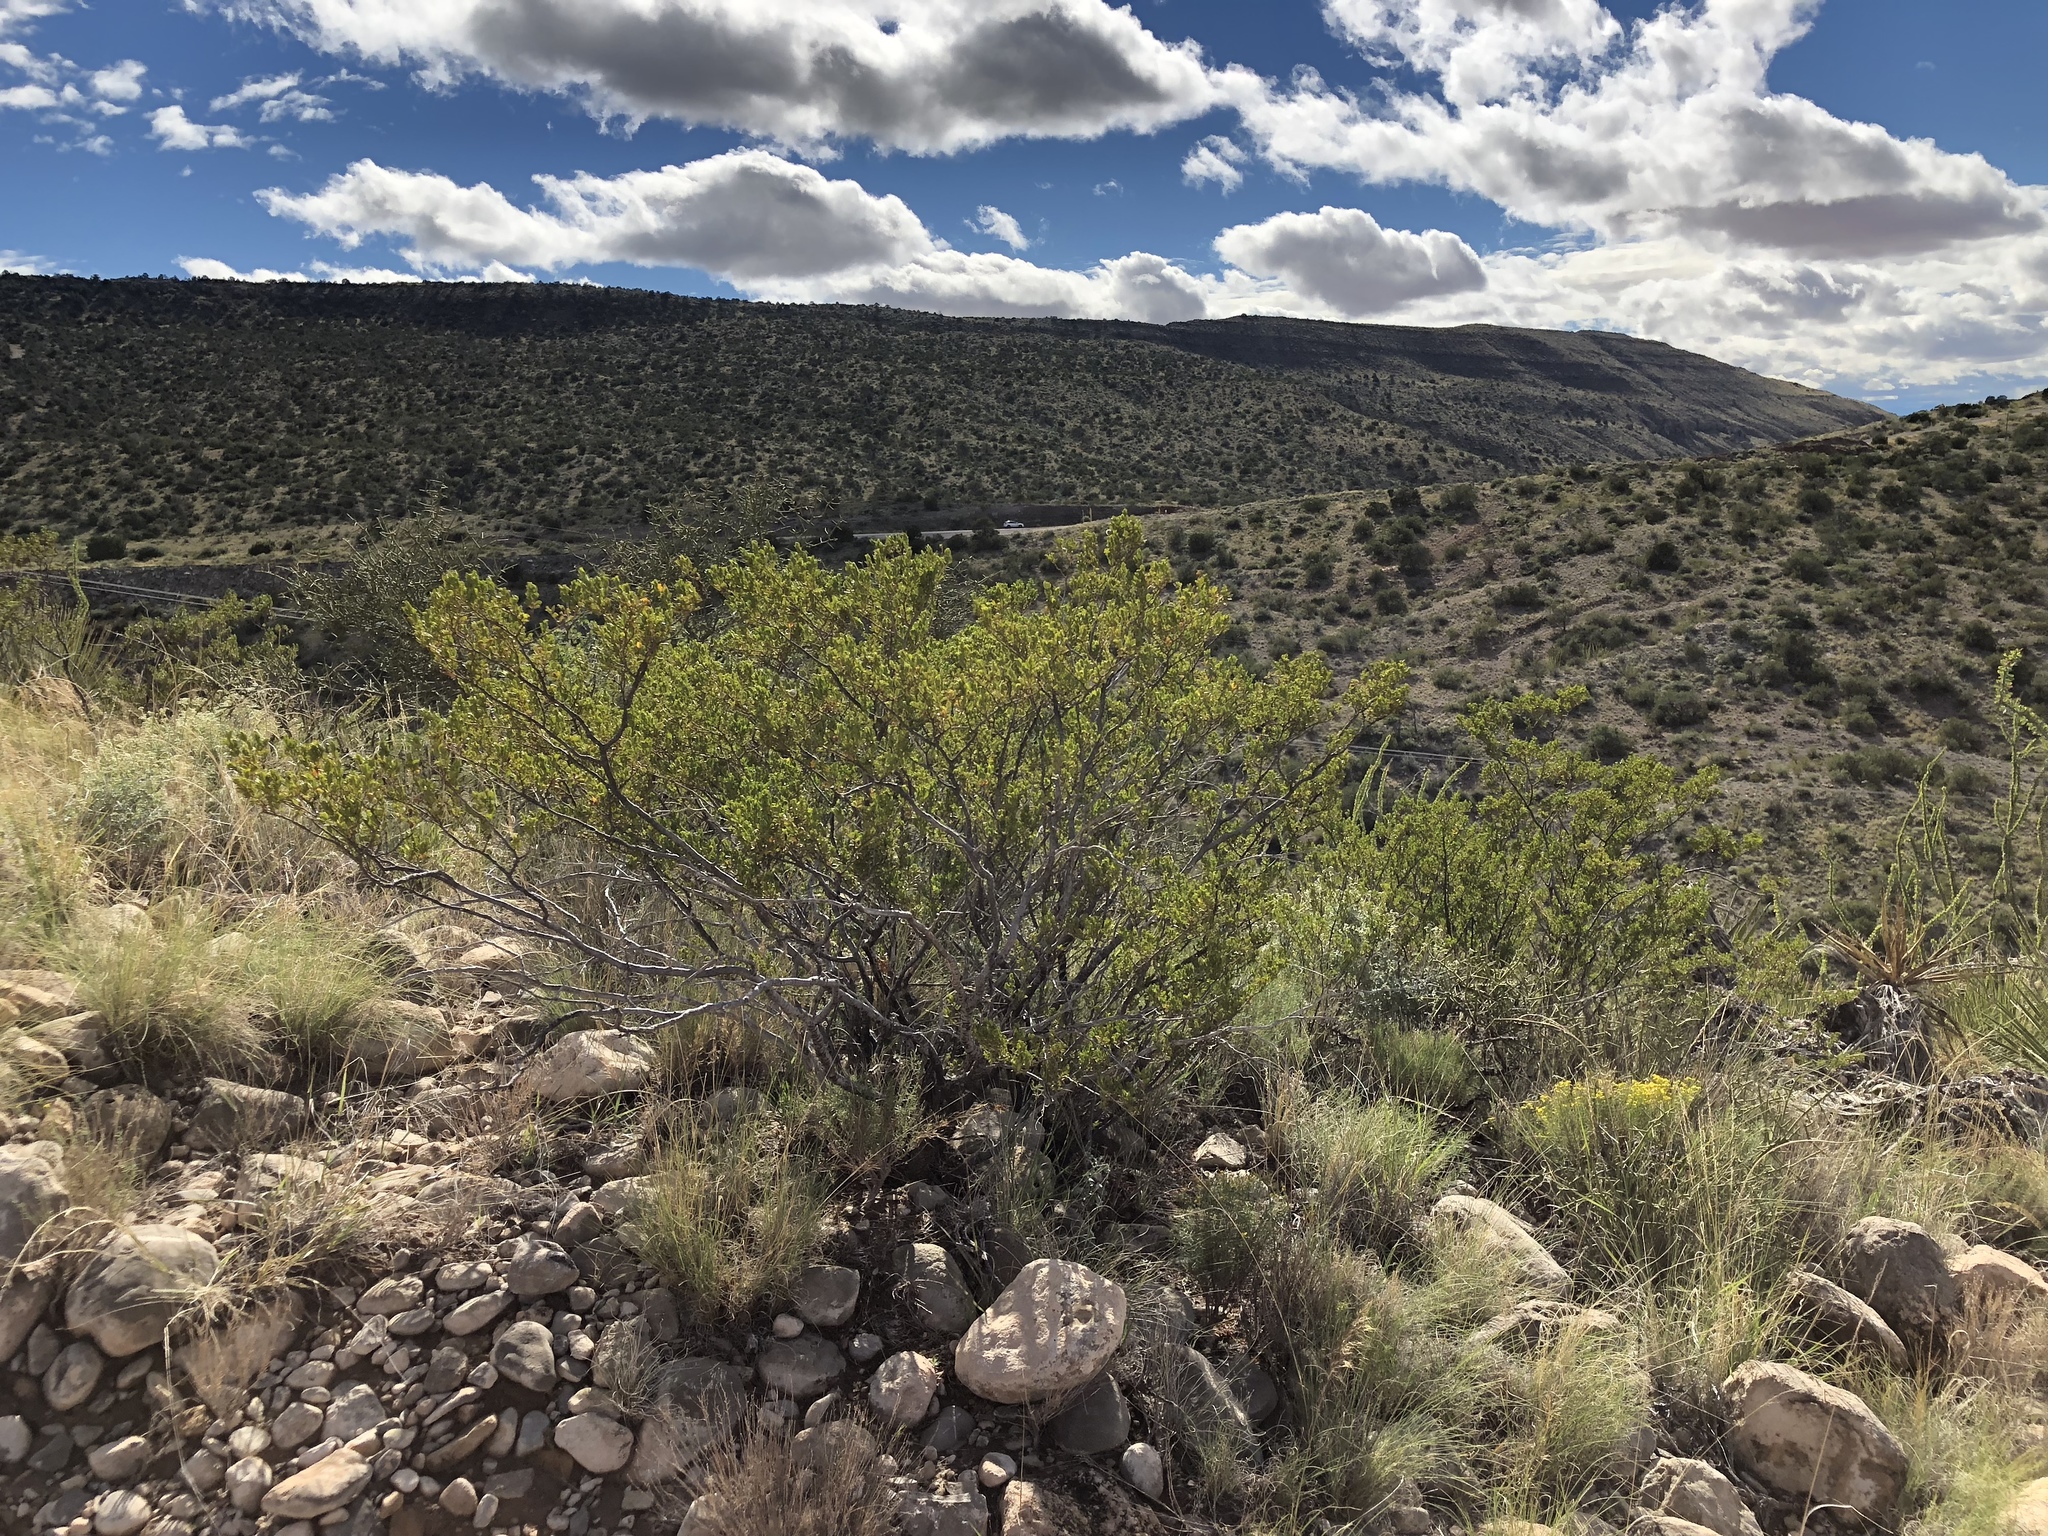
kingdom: Plantae
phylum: Tracheophyta
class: Magnoliopsida
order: Zygophyllales
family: Zygophyllaceae
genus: Larrea
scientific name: Larrea tridentata
